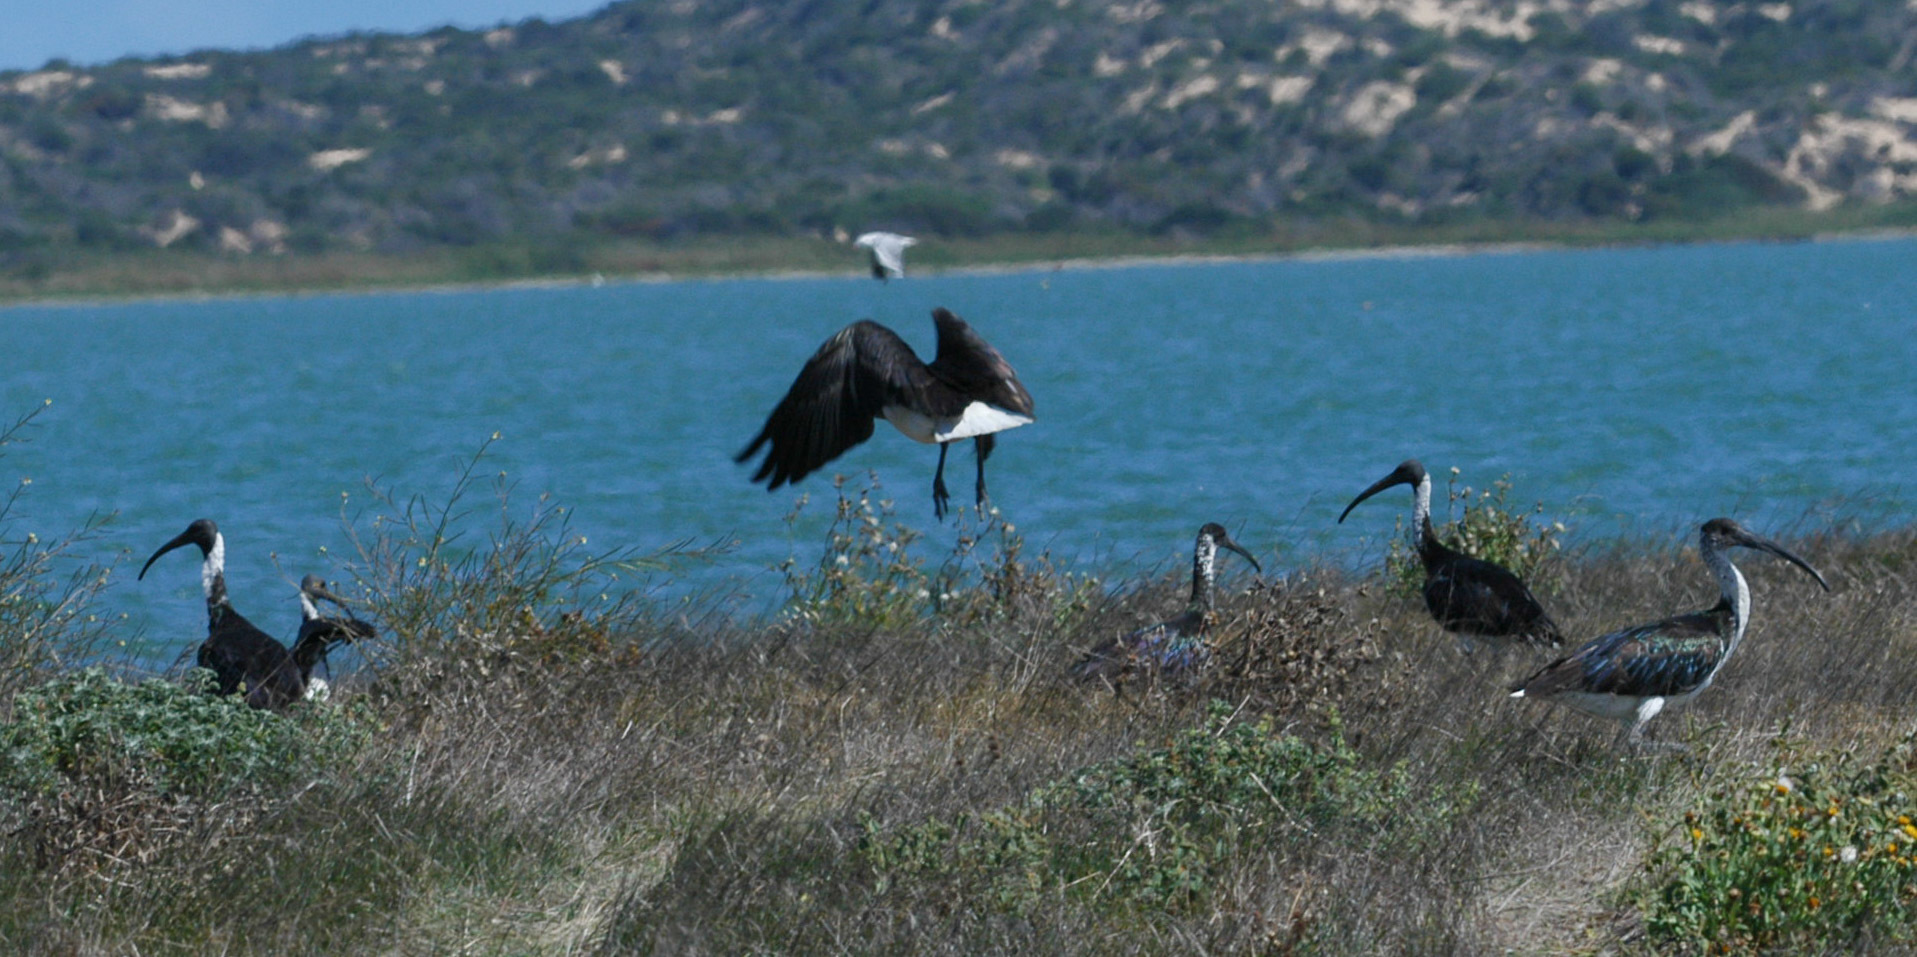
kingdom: Animalia
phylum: Chordata
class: Aves
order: Pelecaniformes
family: Threskiornithidae
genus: Threskiornis
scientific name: Threskiornis spinicollis
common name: Straw-necked ibis
